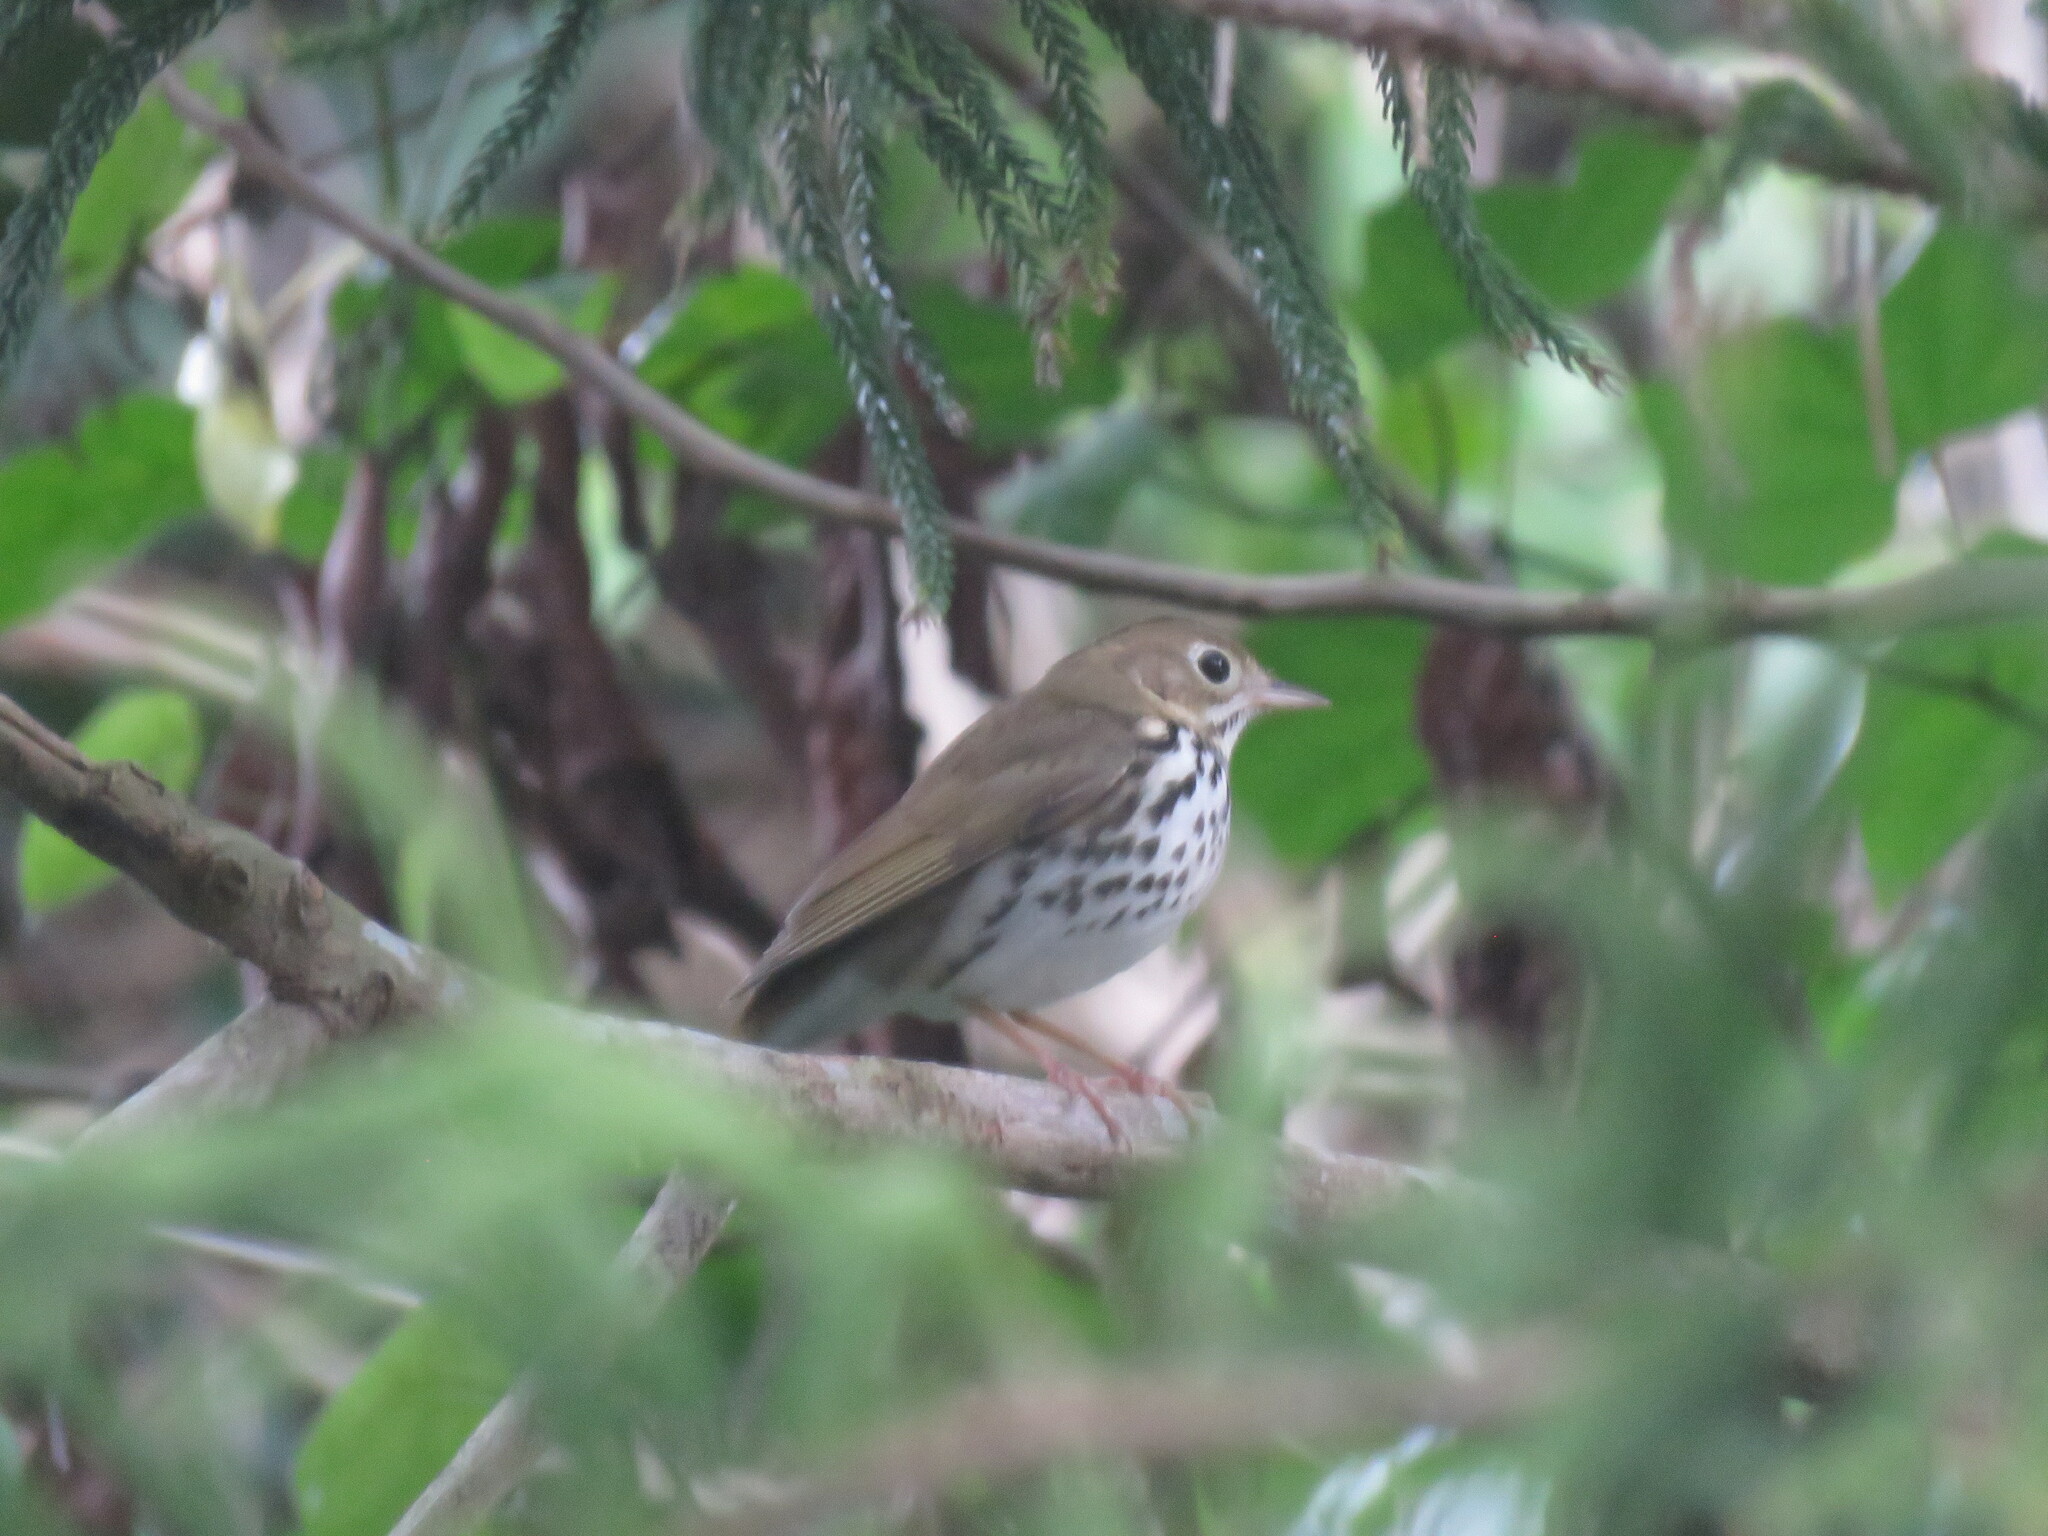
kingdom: Animalia
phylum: Chordata
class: Aves
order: Passeriformes
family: Parulidae
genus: Seiurus
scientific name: Seiurus aurocapilla
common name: Ovenbird
